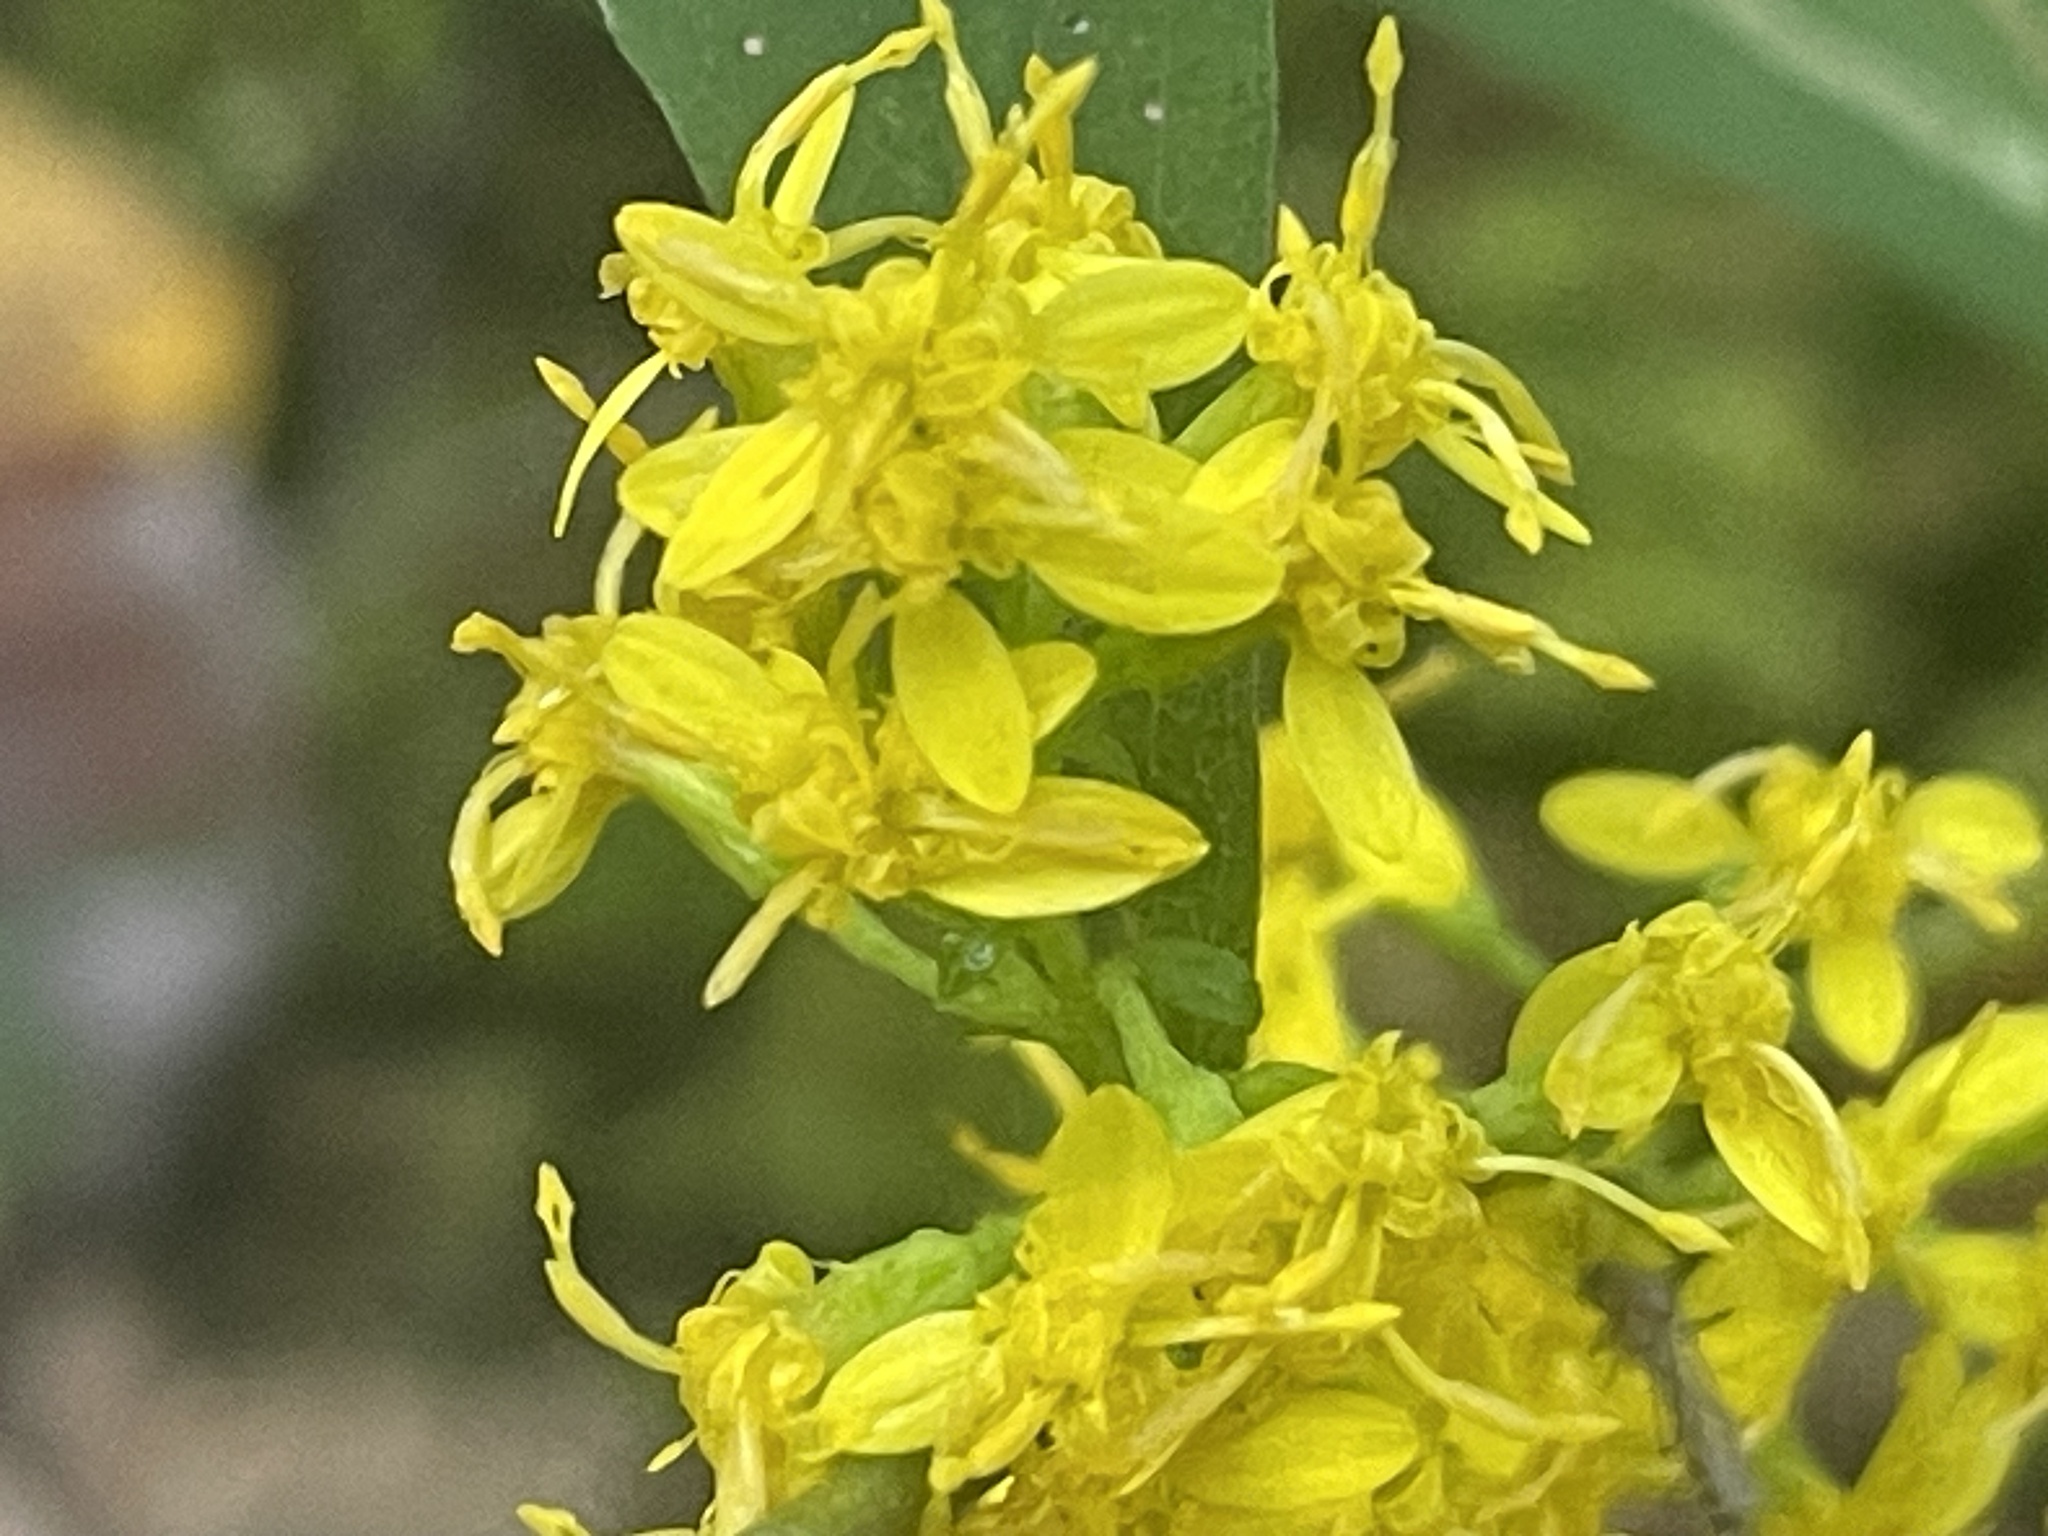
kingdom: Plantae
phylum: Tracheophyta
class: Magnoliopsida
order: Asterales
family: Asteraceae
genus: Solidago
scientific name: Solidago caesia
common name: Woodland goldenrod
